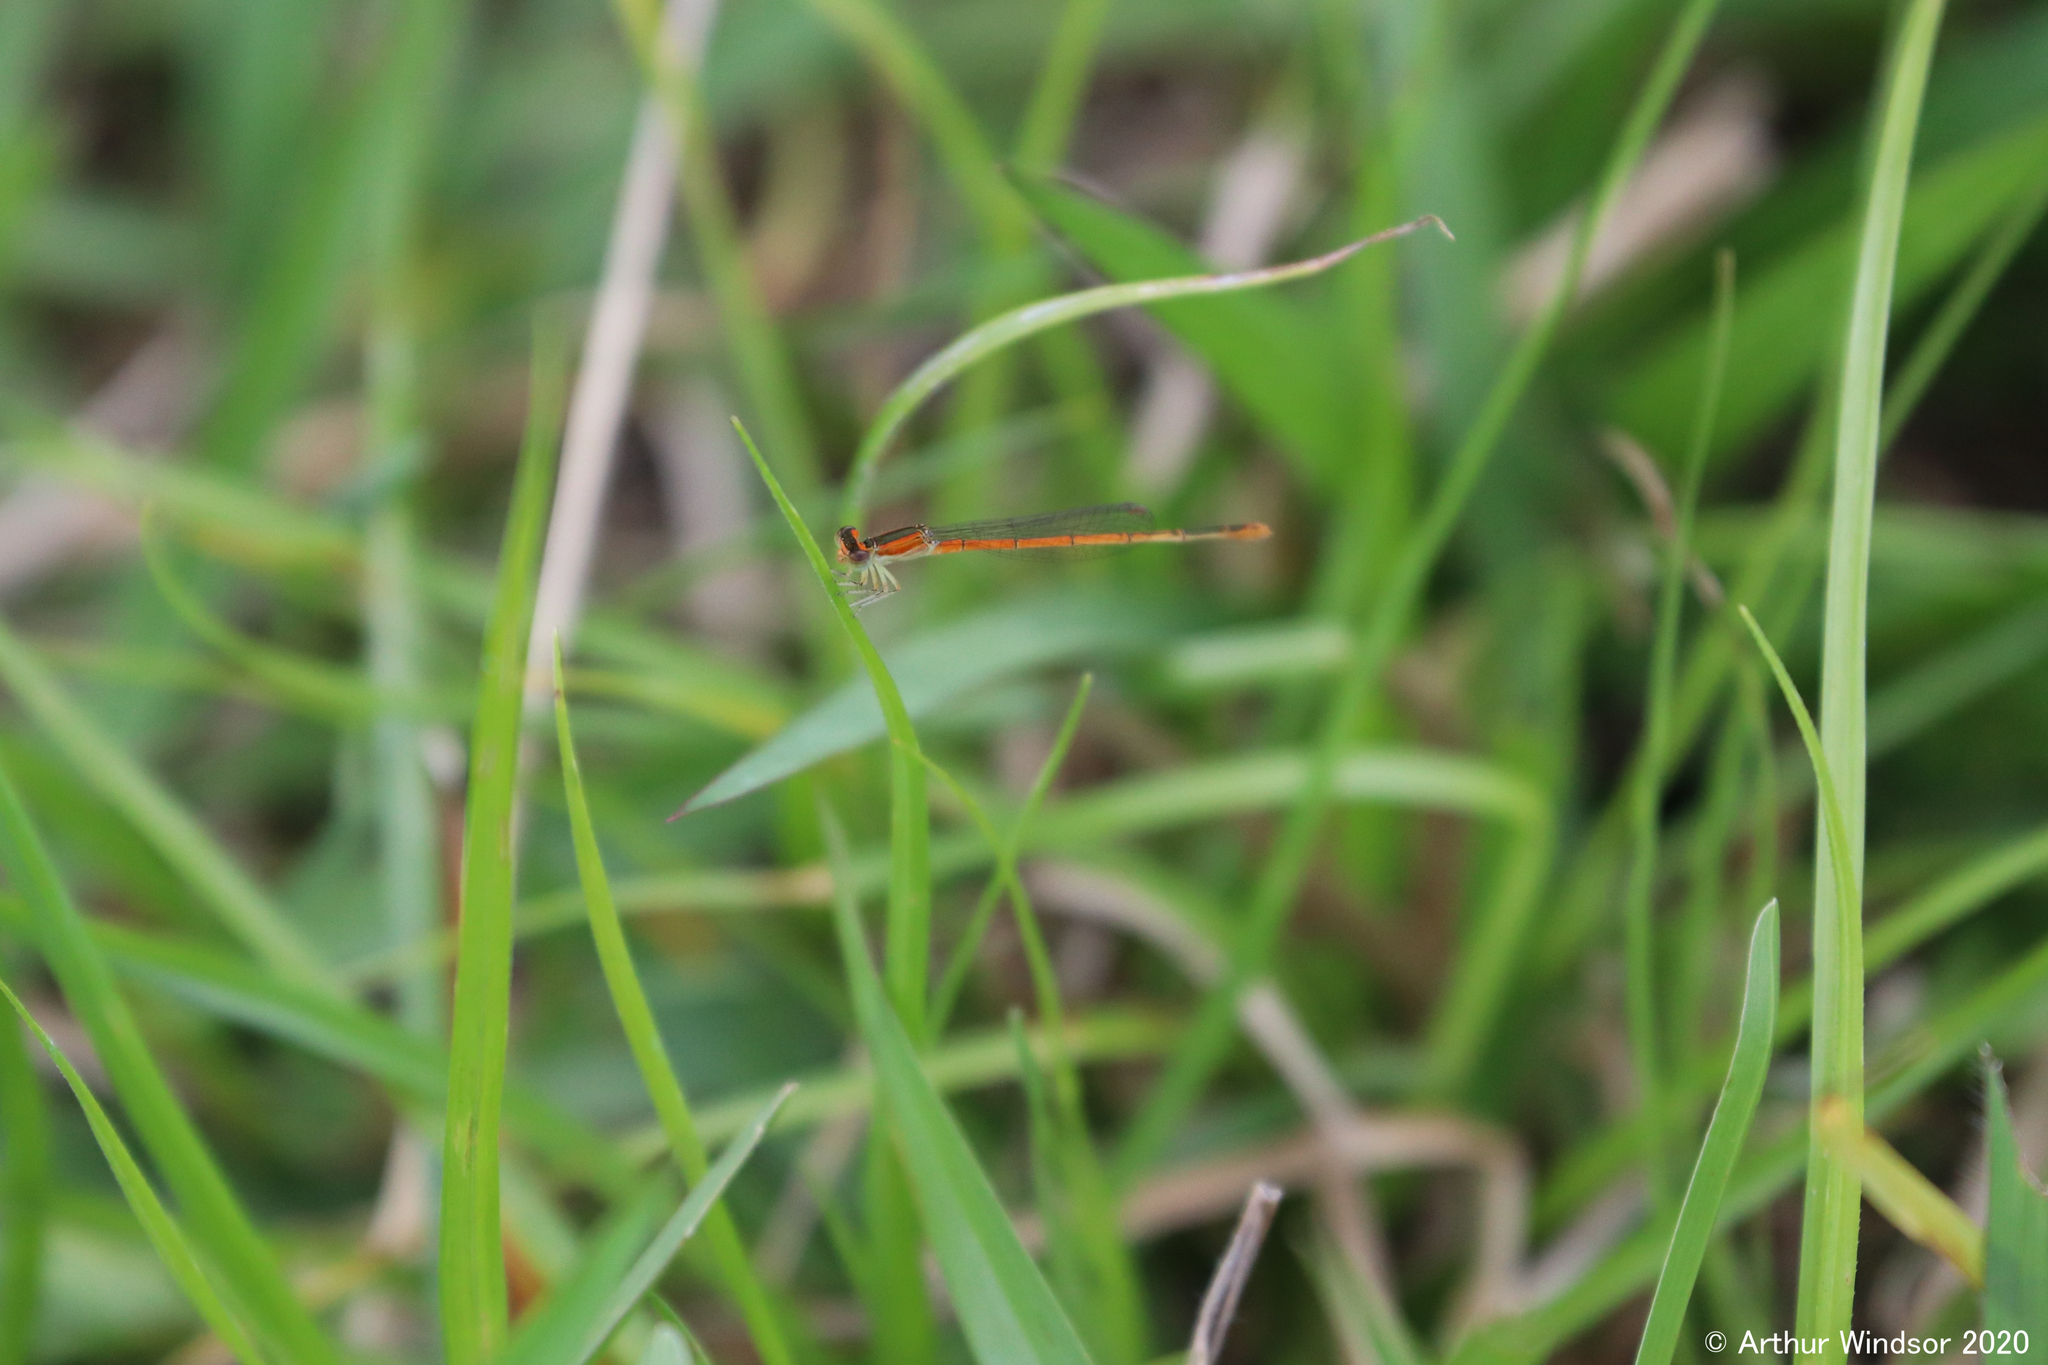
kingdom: Animalia
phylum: Arthropoda
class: Insecta
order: Odonata
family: Coenagrionidae
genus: Ischnura
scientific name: Ischnura hastata
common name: Citrine forktail
